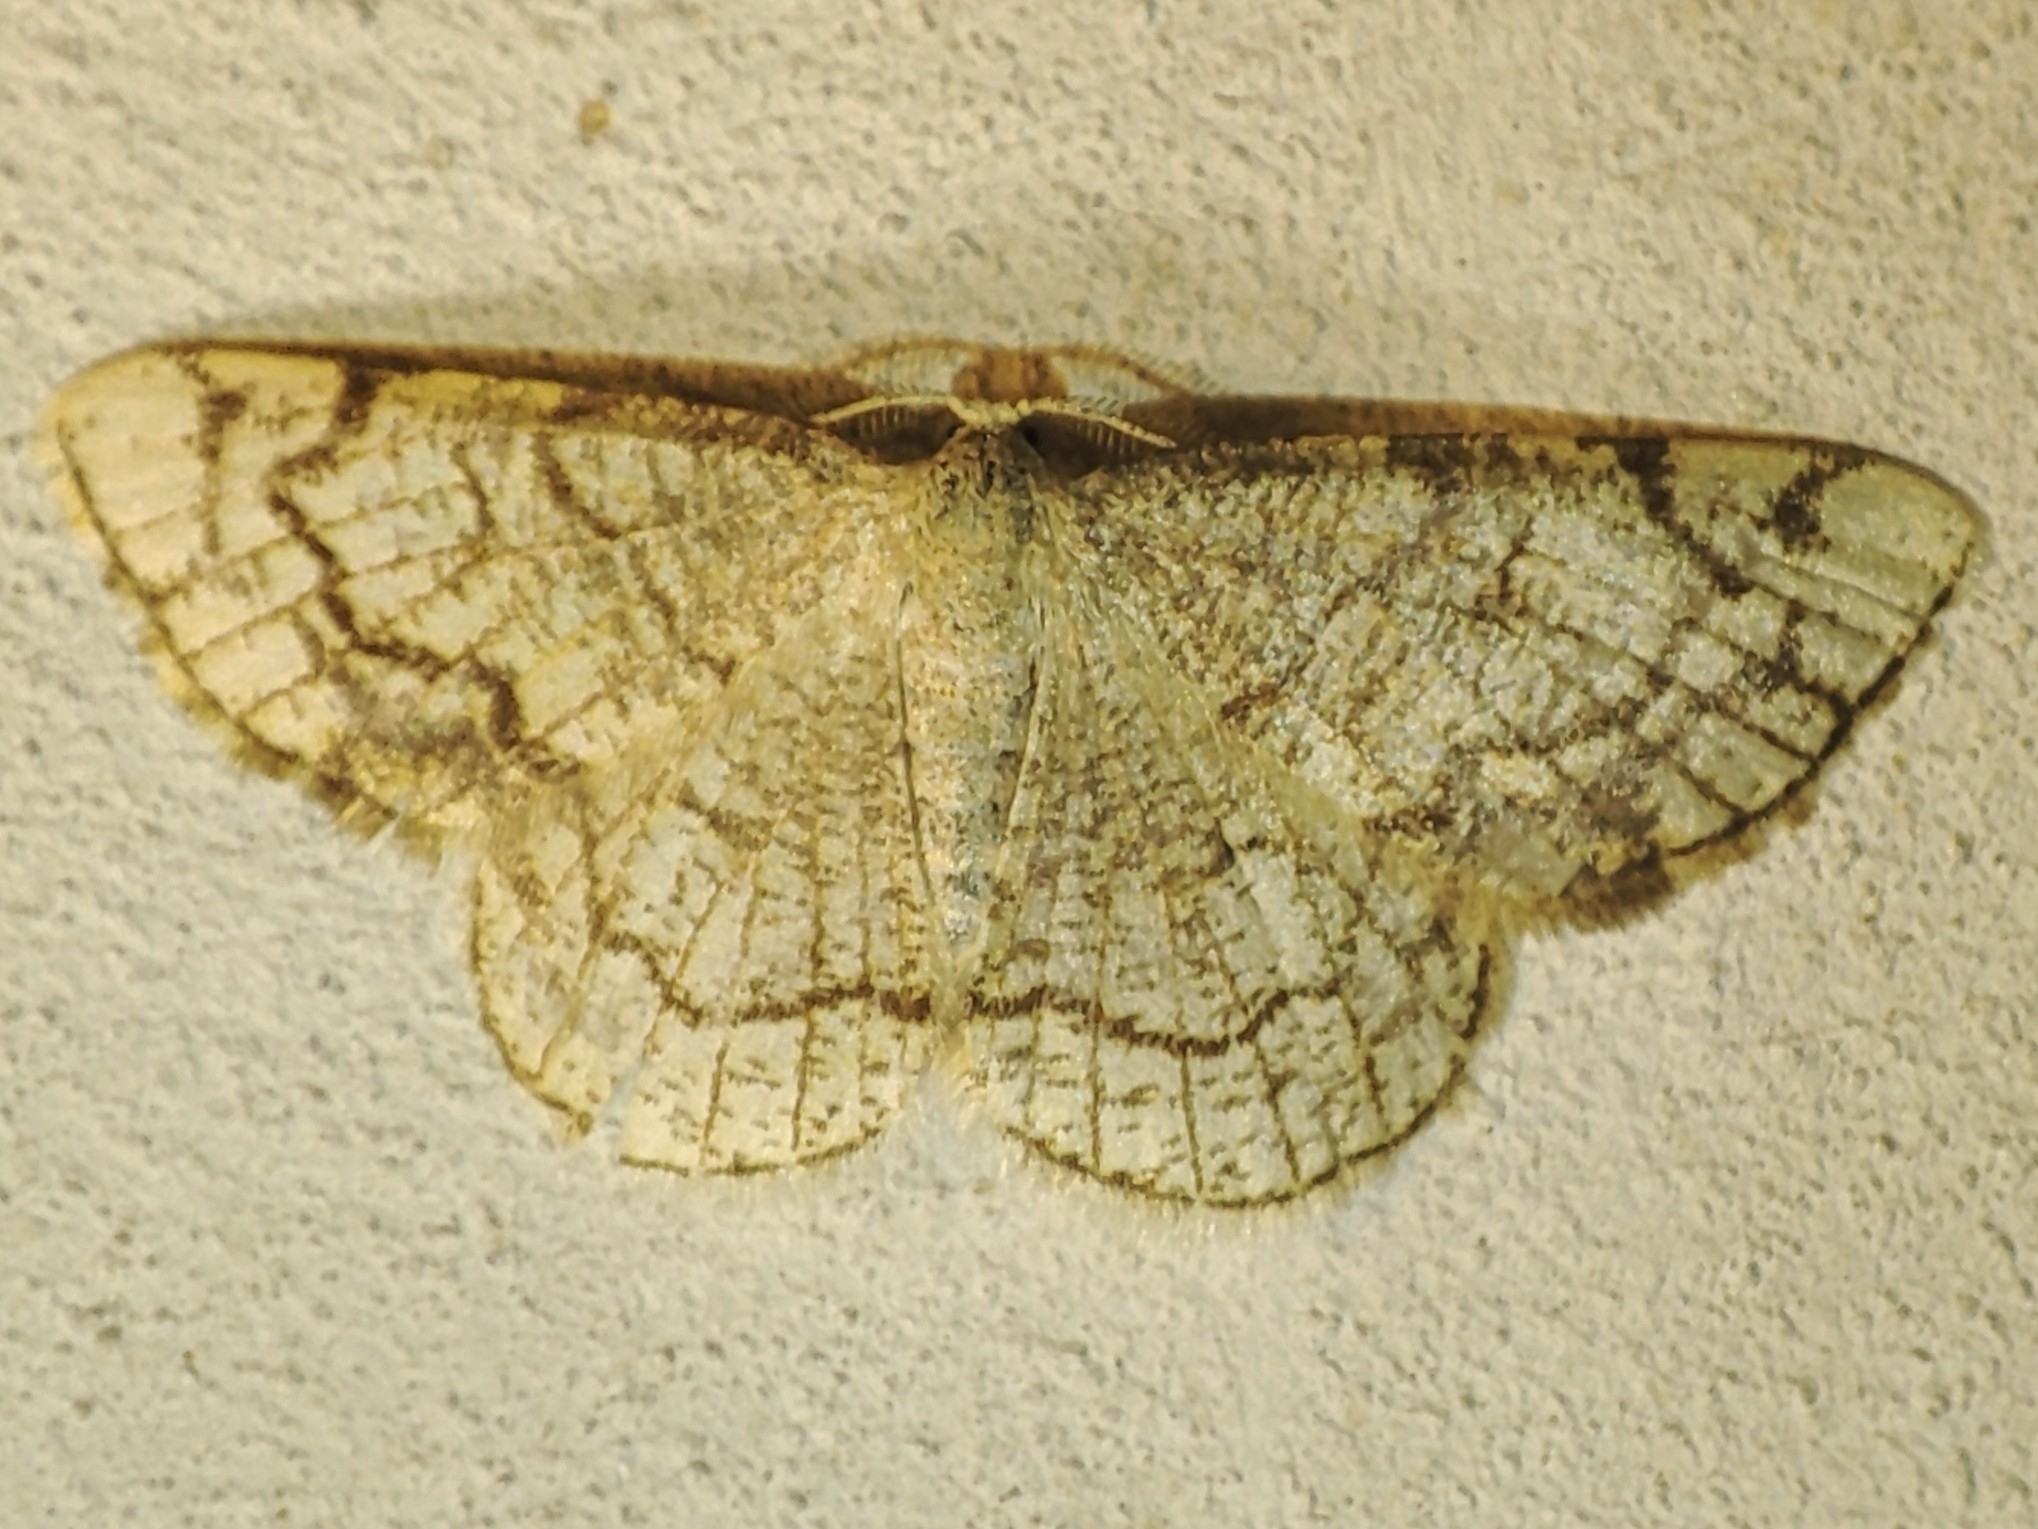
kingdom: Animalia
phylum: Arthropoda
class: Insecta
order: Lepidoptera
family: Geometridae
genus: Stegania
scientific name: Stegania dilectaria
